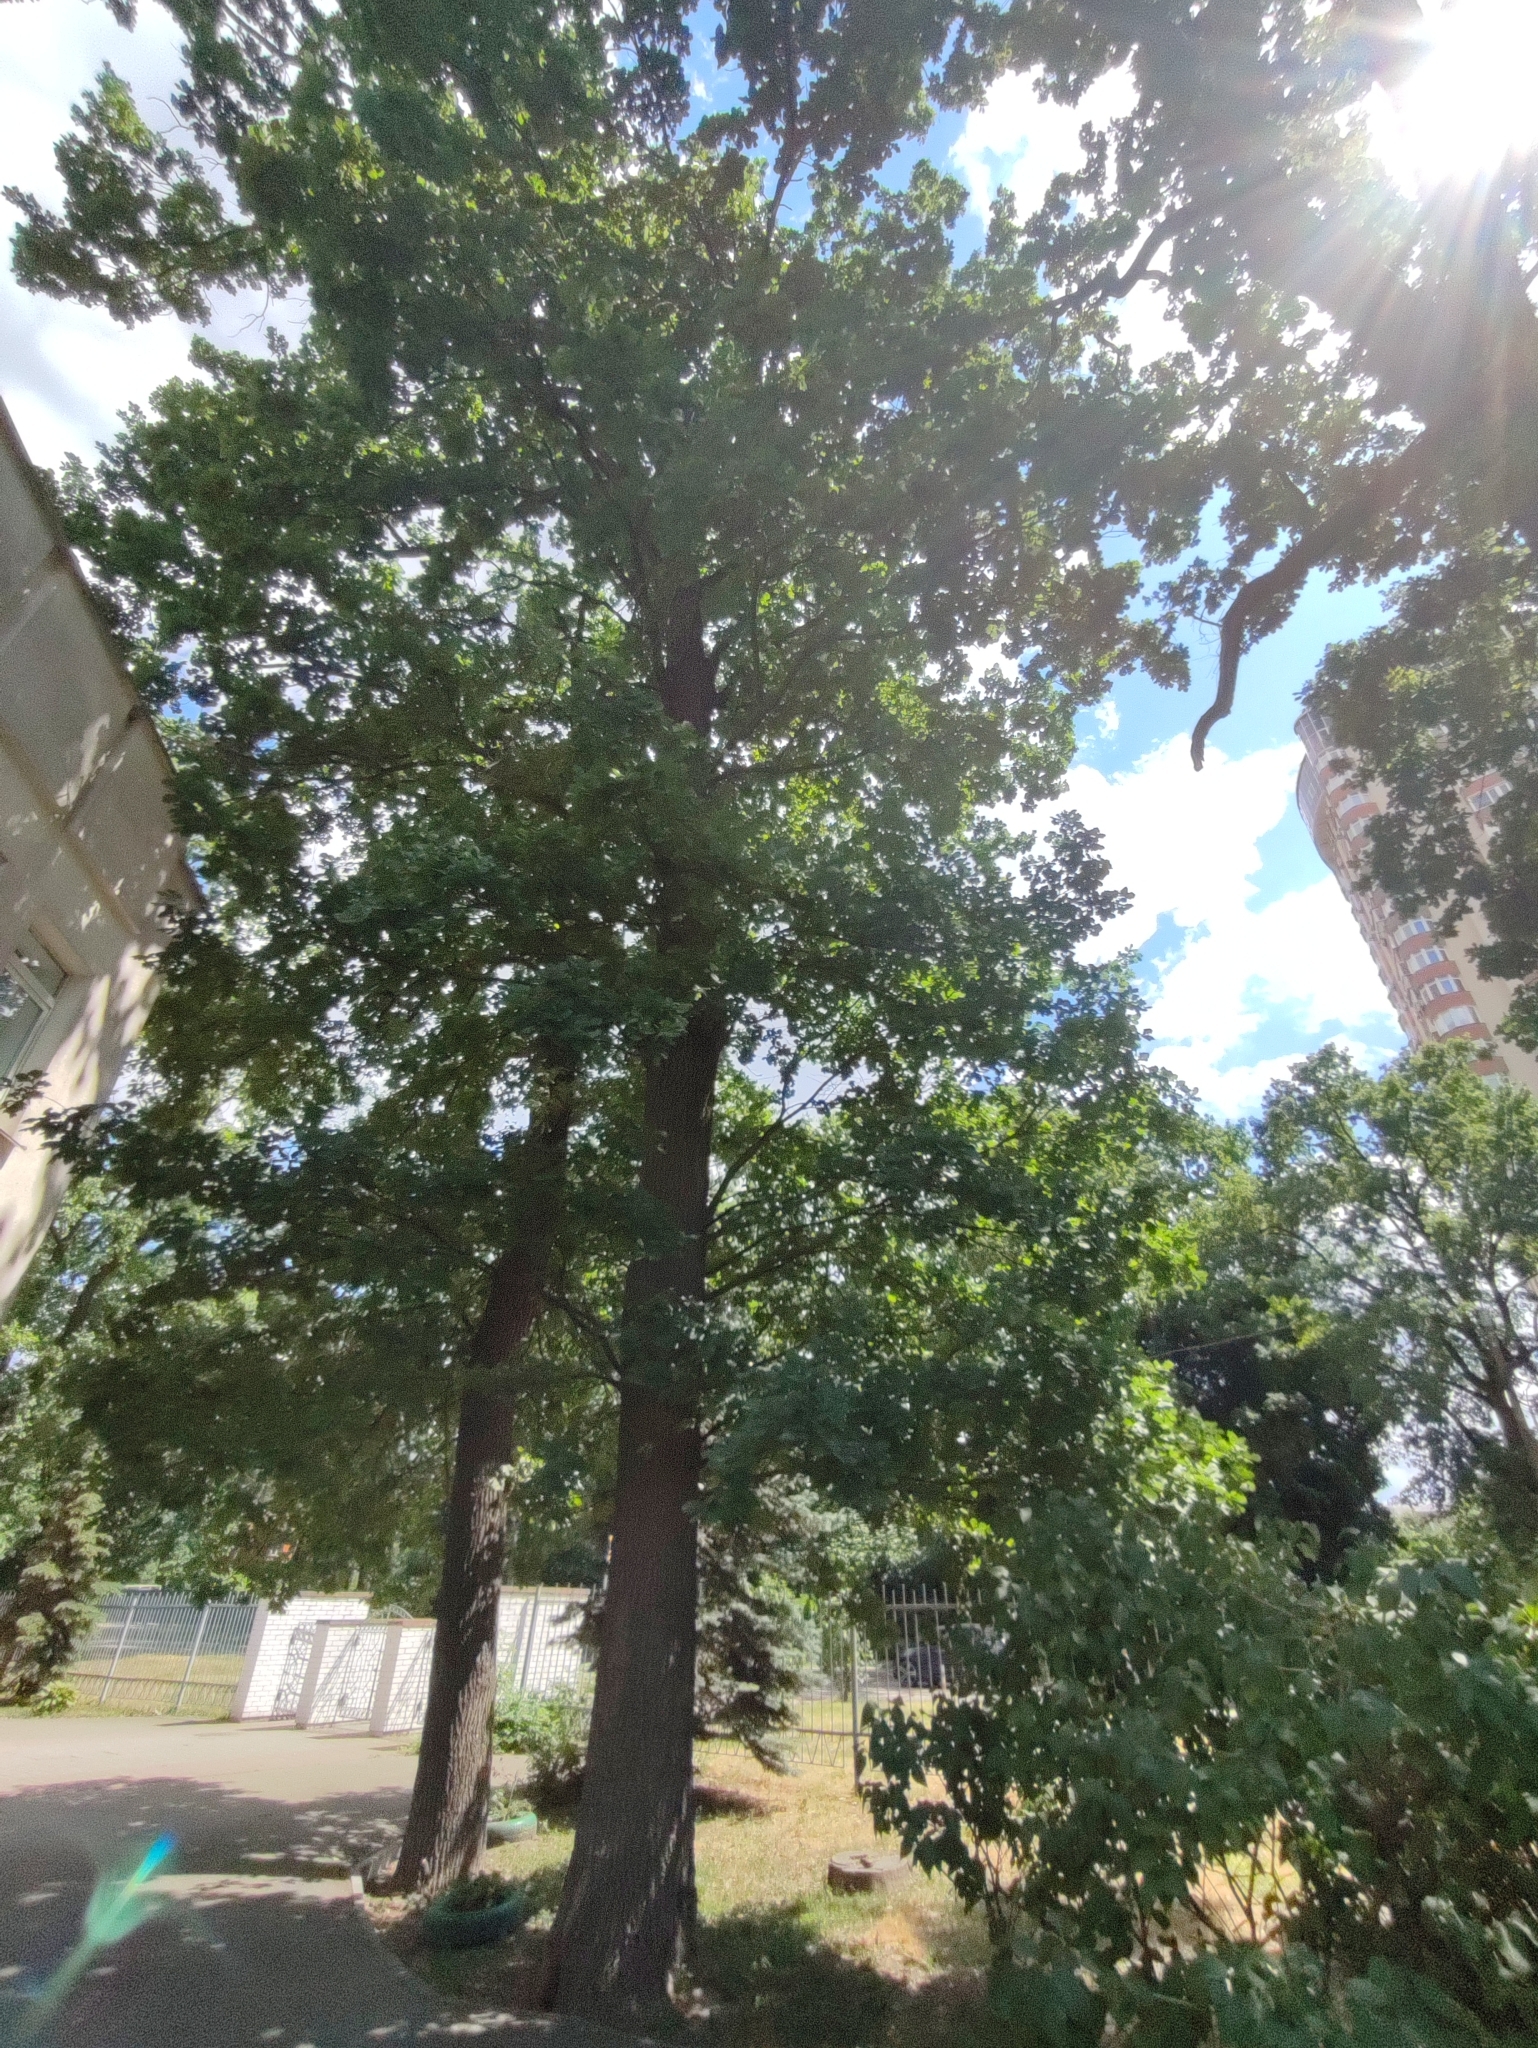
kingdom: Plantae
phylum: Tracheophyta
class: Magnoliopsida
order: Fagales
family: Fagaceae
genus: Quercus
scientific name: Quercus robur
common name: Pedunculate oak
